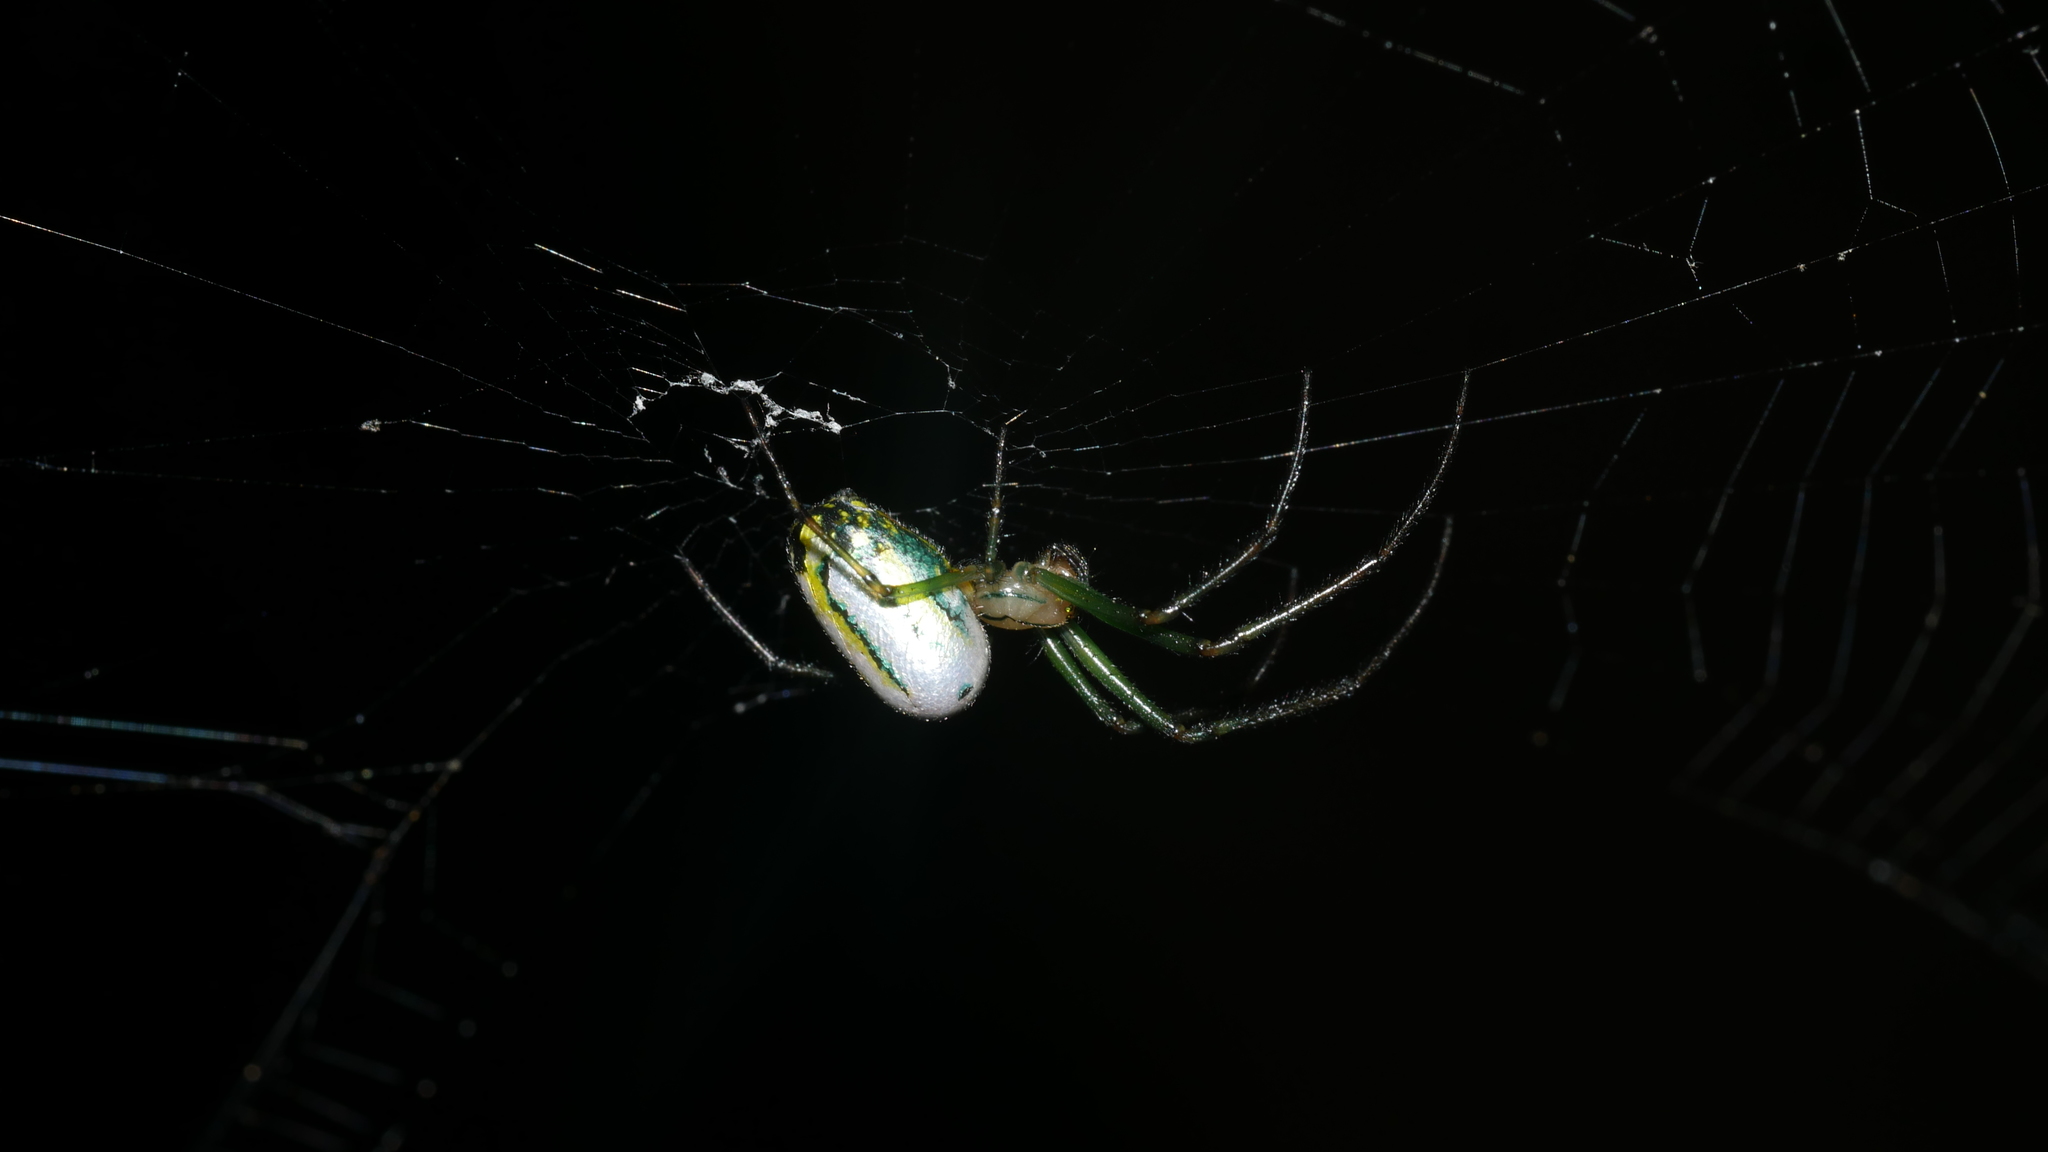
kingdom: Animalia
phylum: Arthropoda
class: Arachnida
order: Araneae
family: Tetragnathidae
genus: Leucauge
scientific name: Leucauge
